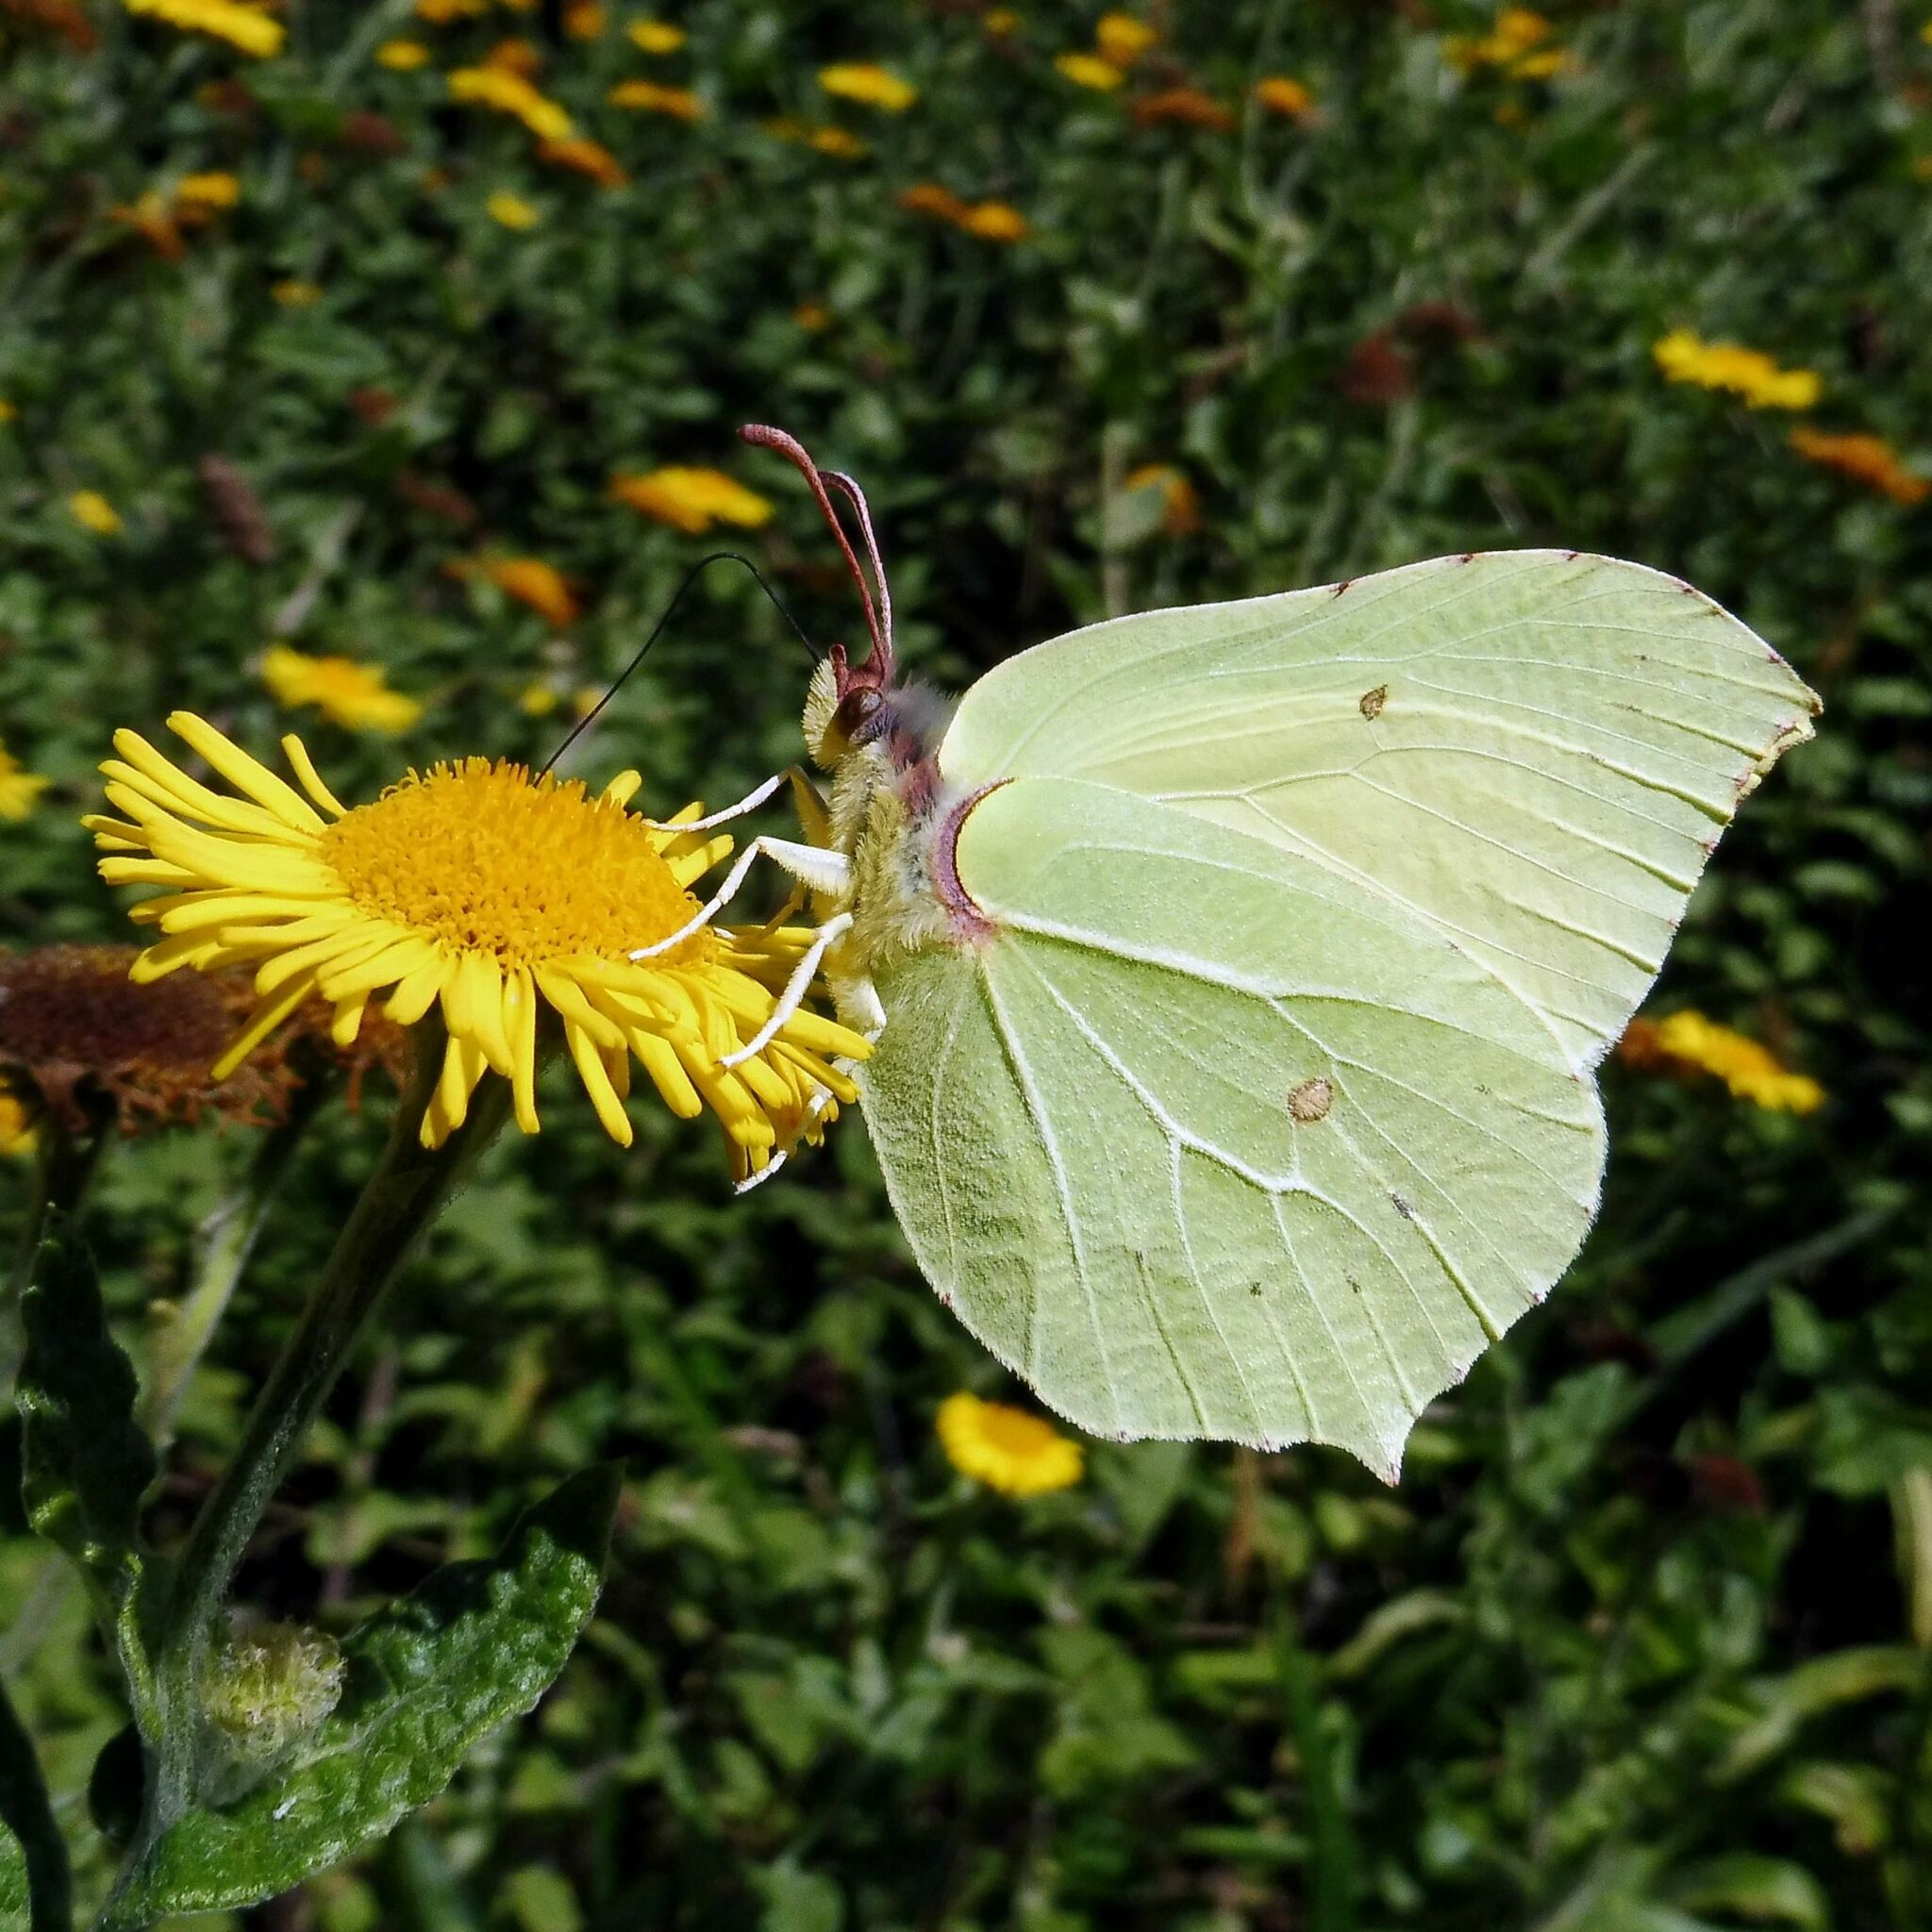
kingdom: Animalia
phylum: Arthropoda
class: Insecta
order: Lepidoptera
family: Pieridae
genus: Gonepteryx
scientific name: Gonepteryx rhamni
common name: Brimstone
